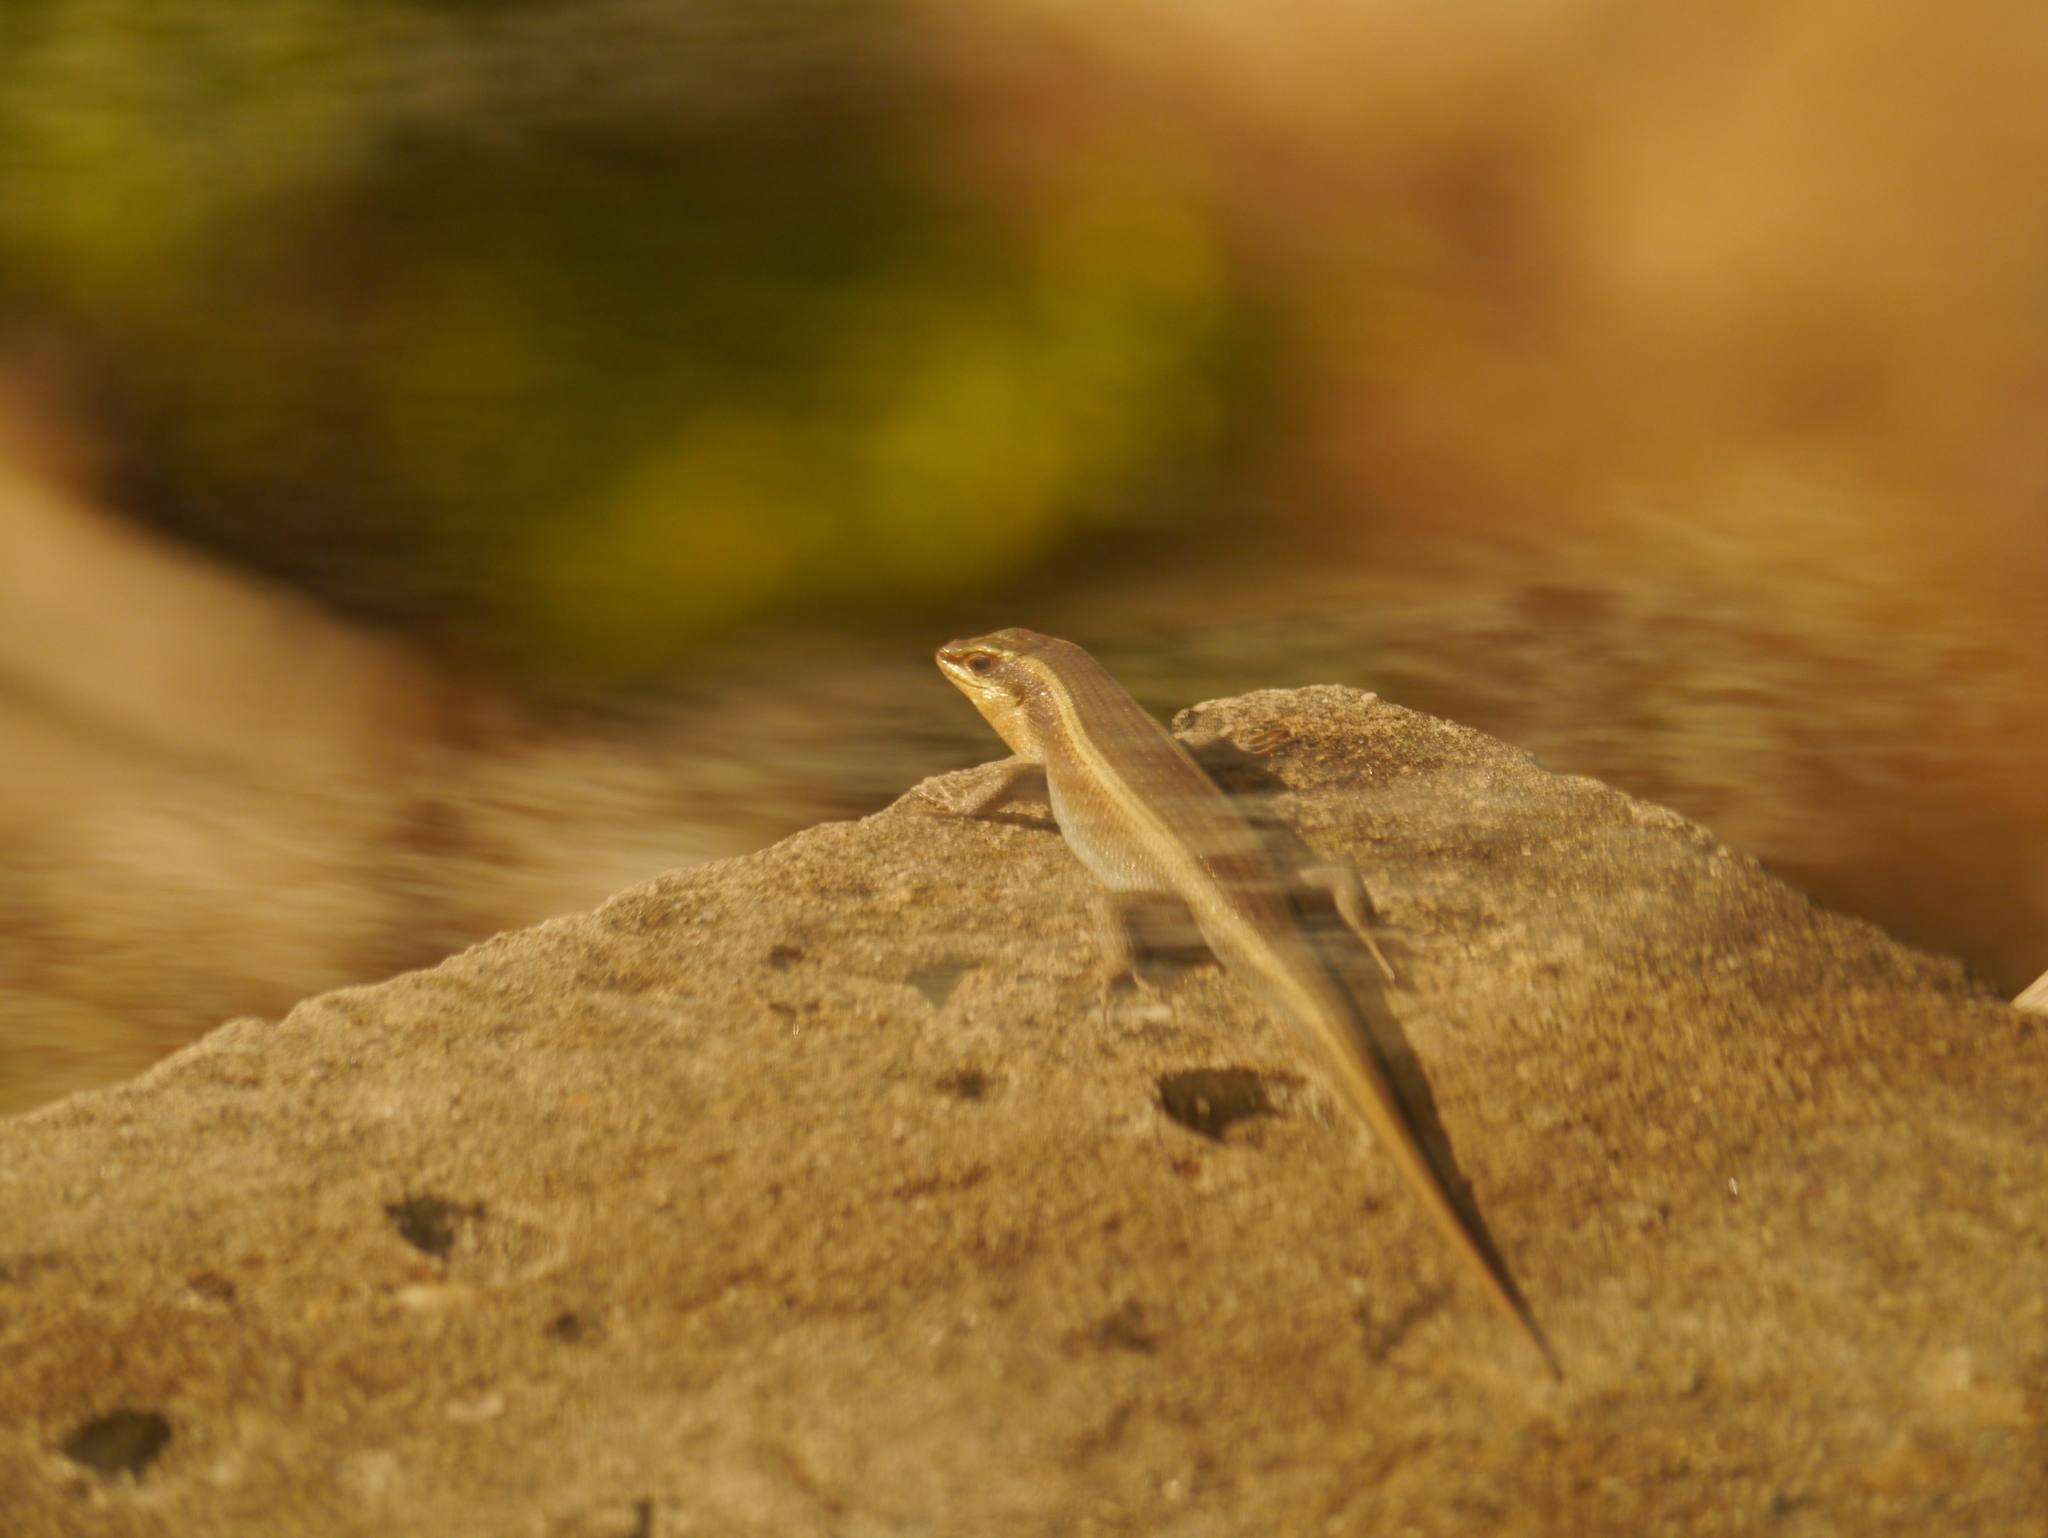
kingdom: Animalia
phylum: Chordata
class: Squamata
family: Scincidae
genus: Trachylepis
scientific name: Trachylepis striata
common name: African striped mabuya
